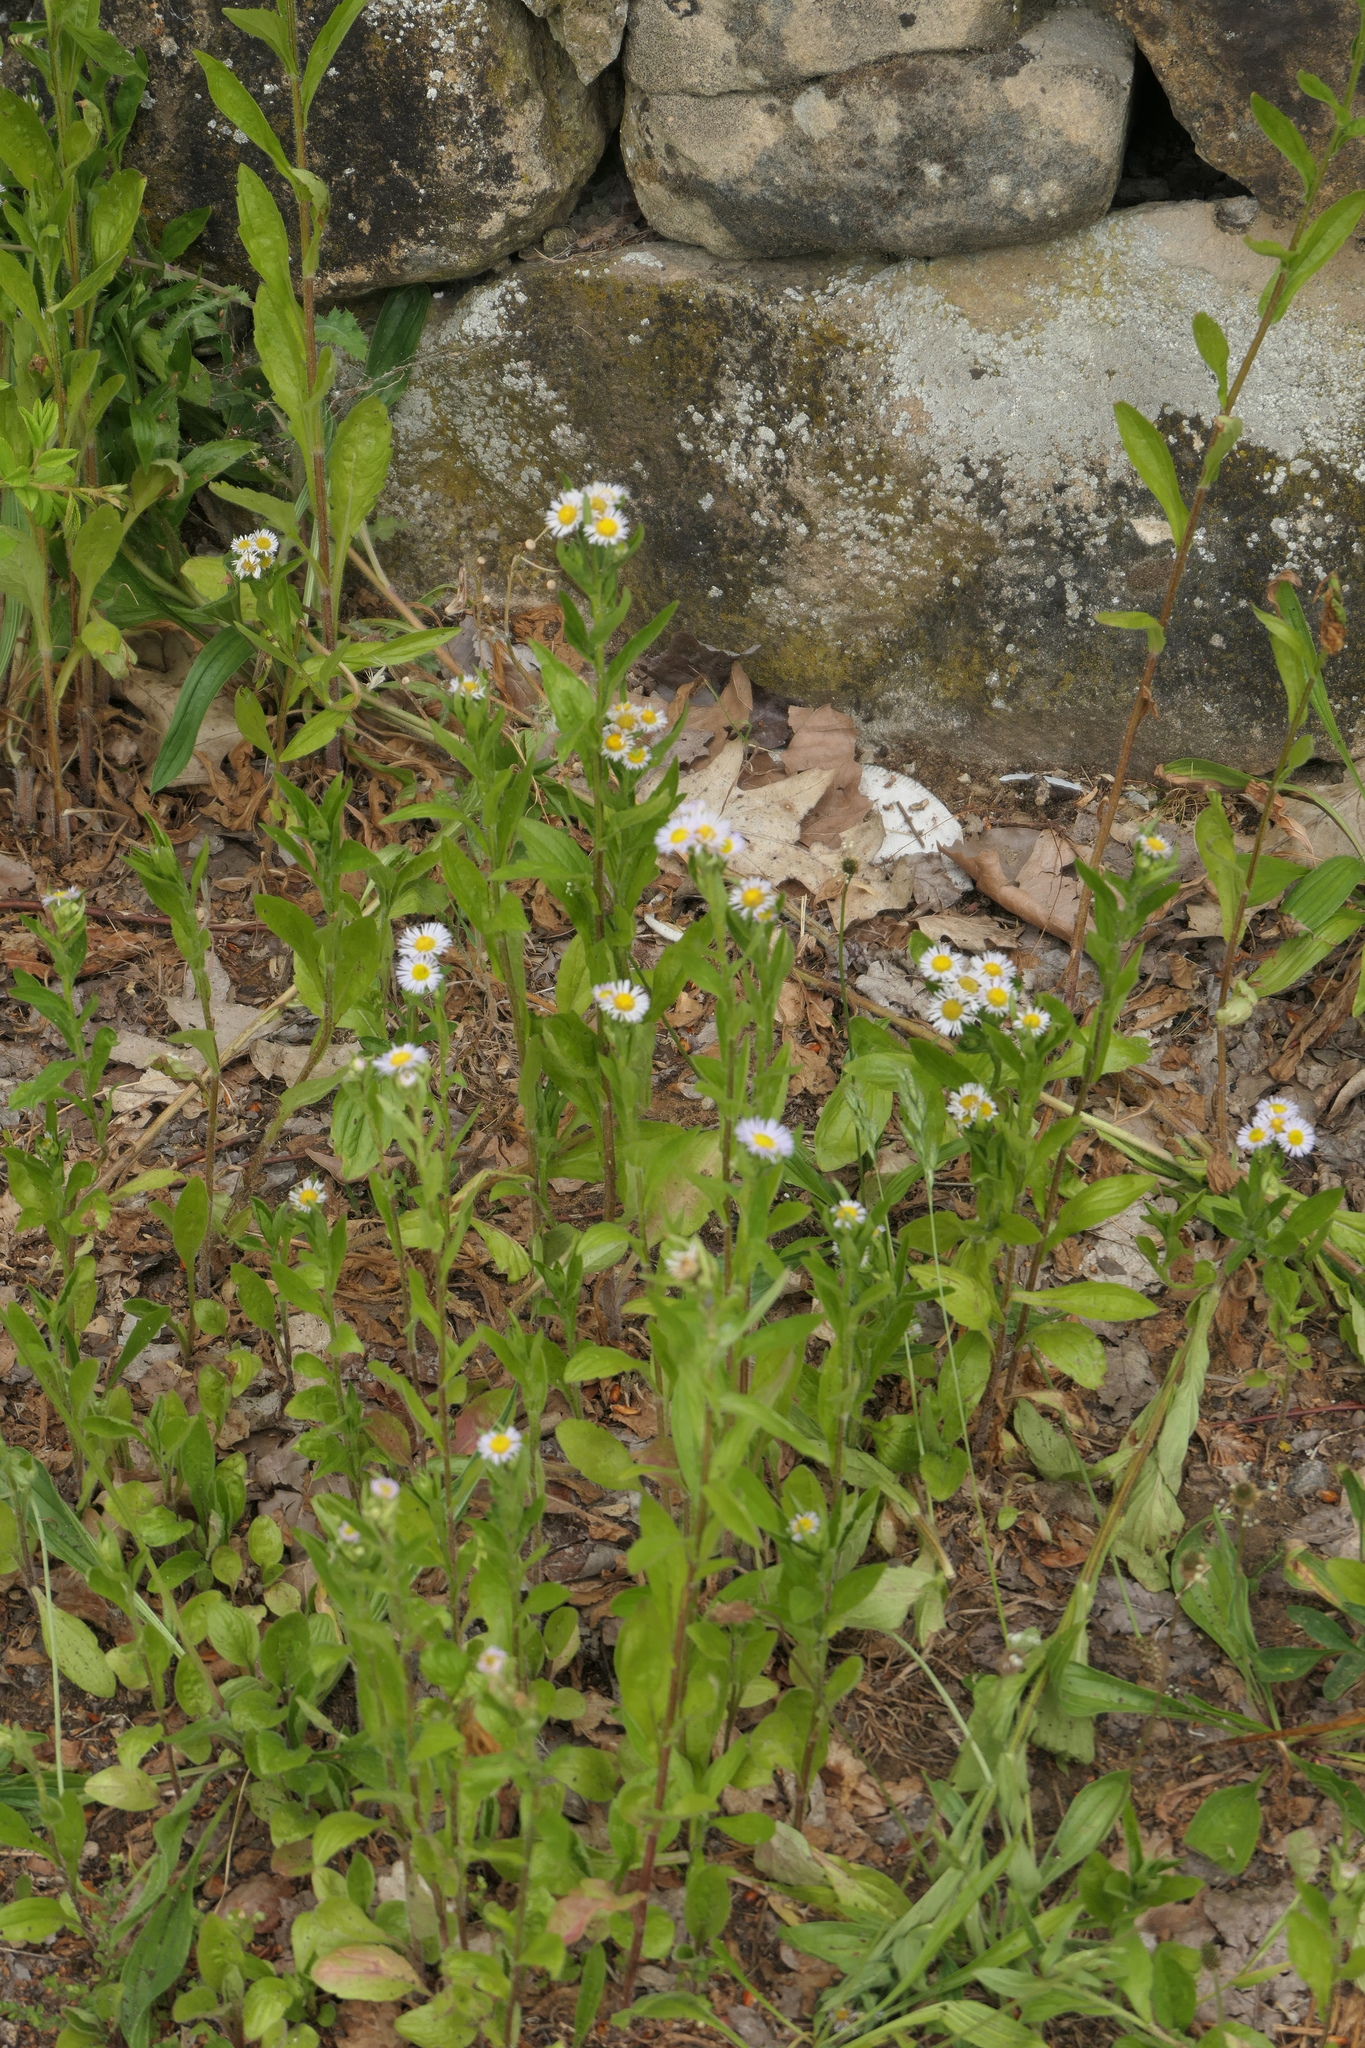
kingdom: Plantae
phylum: Tracheophyta
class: Magnoliopsida
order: Asterales
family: Asteraceae
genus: Erigeron
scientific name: Erigeron annuus
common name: Tall fleabane
